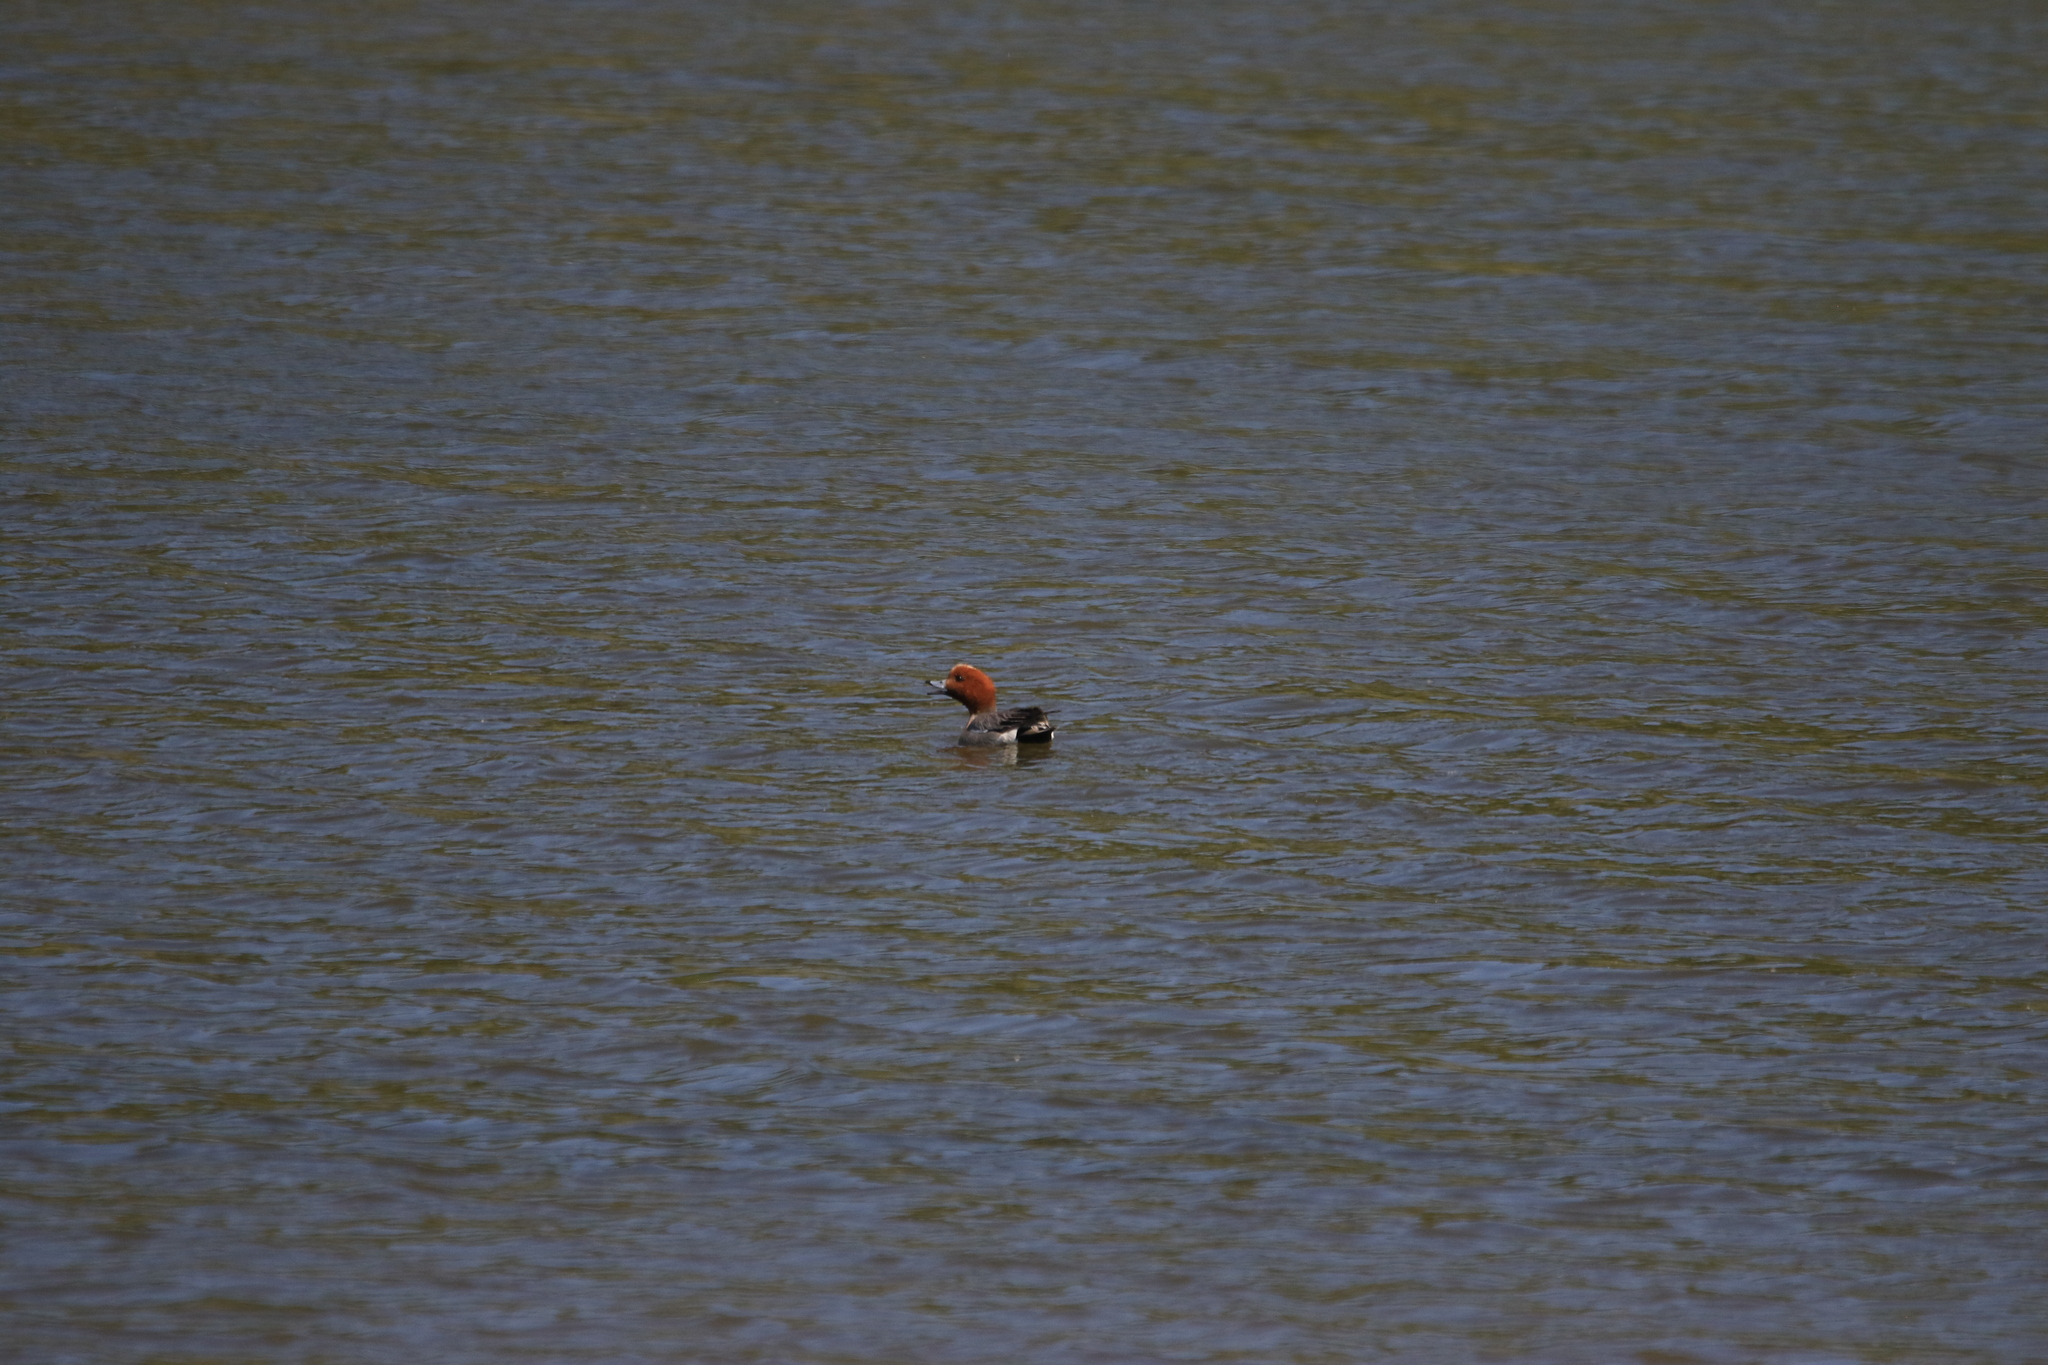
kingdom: Animalia
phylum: Chordata
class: Aves
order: Anseriformes
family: Anatidae
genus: Mareca
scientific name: Mareca penelope
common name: Eurasian wigeon
